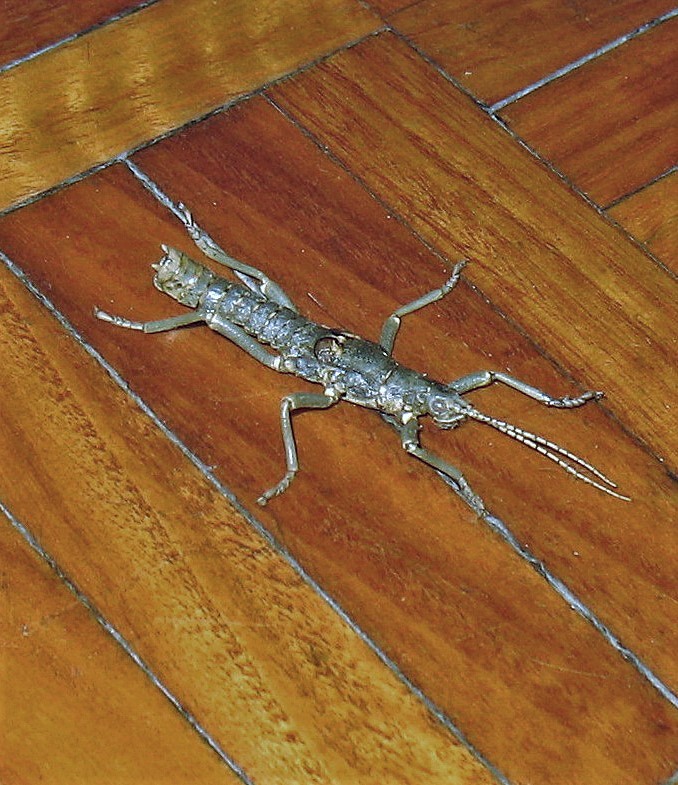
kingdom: Animalia
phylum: Arthropoda
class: Insecta
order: Phasmida
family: Agathemeridae
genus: Agathemera
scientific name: Agathemera luteola
